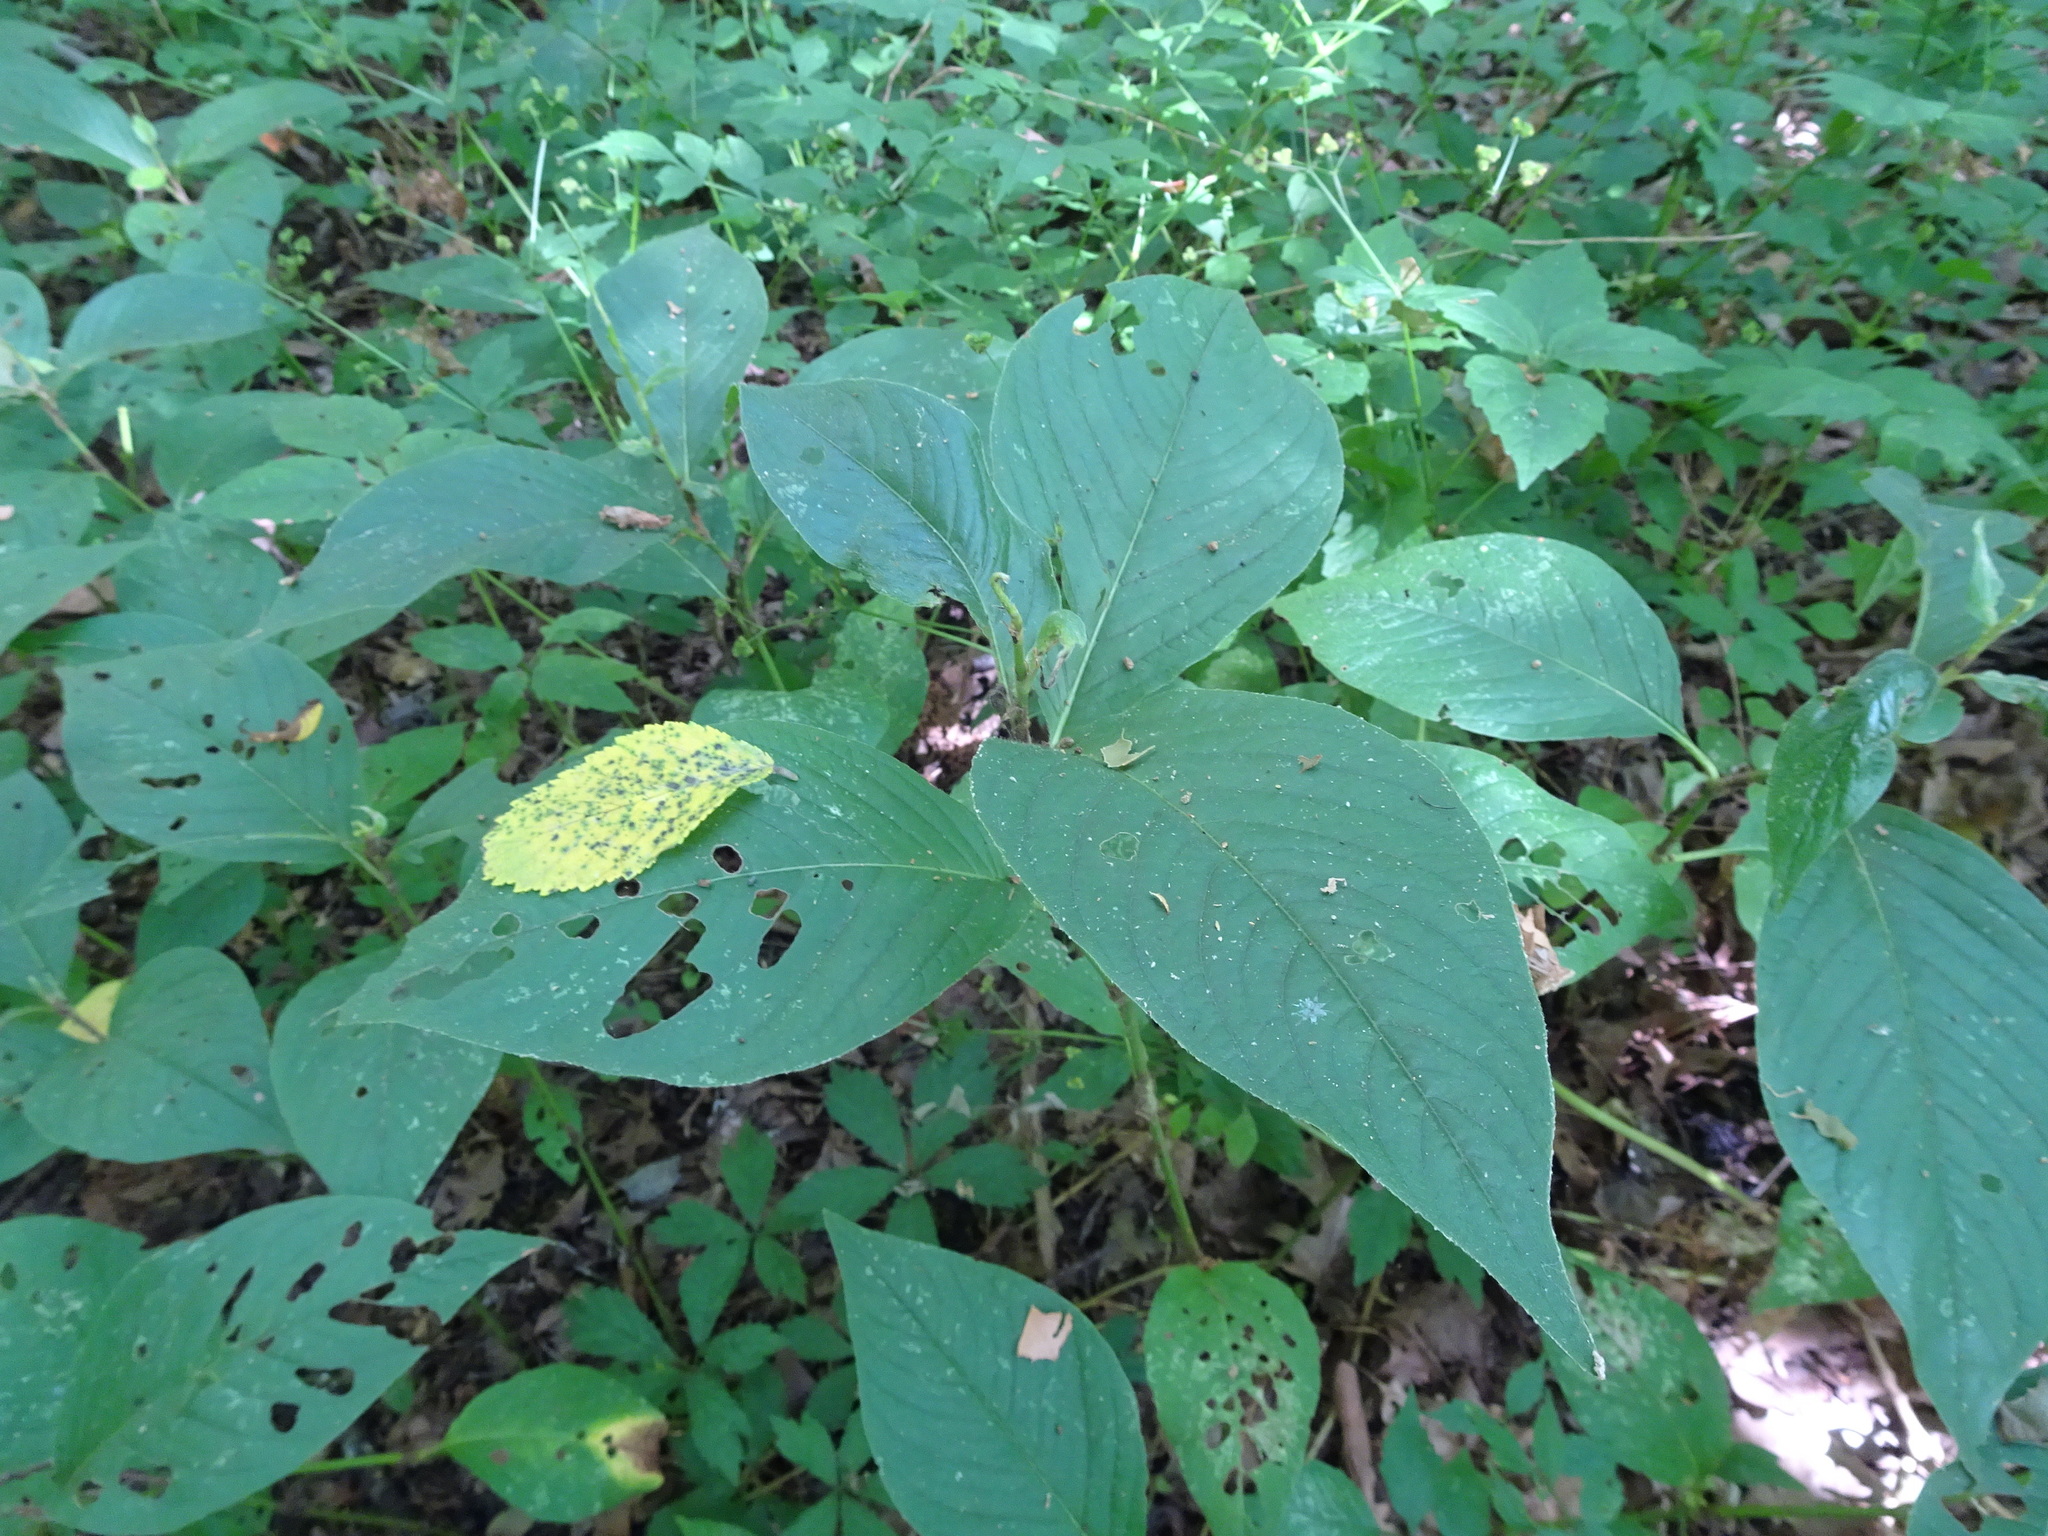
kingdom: Plantae
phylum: Tracheophyta
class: Magnoliopsida
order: Caryophyllales
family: Polygonaceae
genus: Persicaria
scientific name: Persicaria virginiana
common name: Jumpseed
